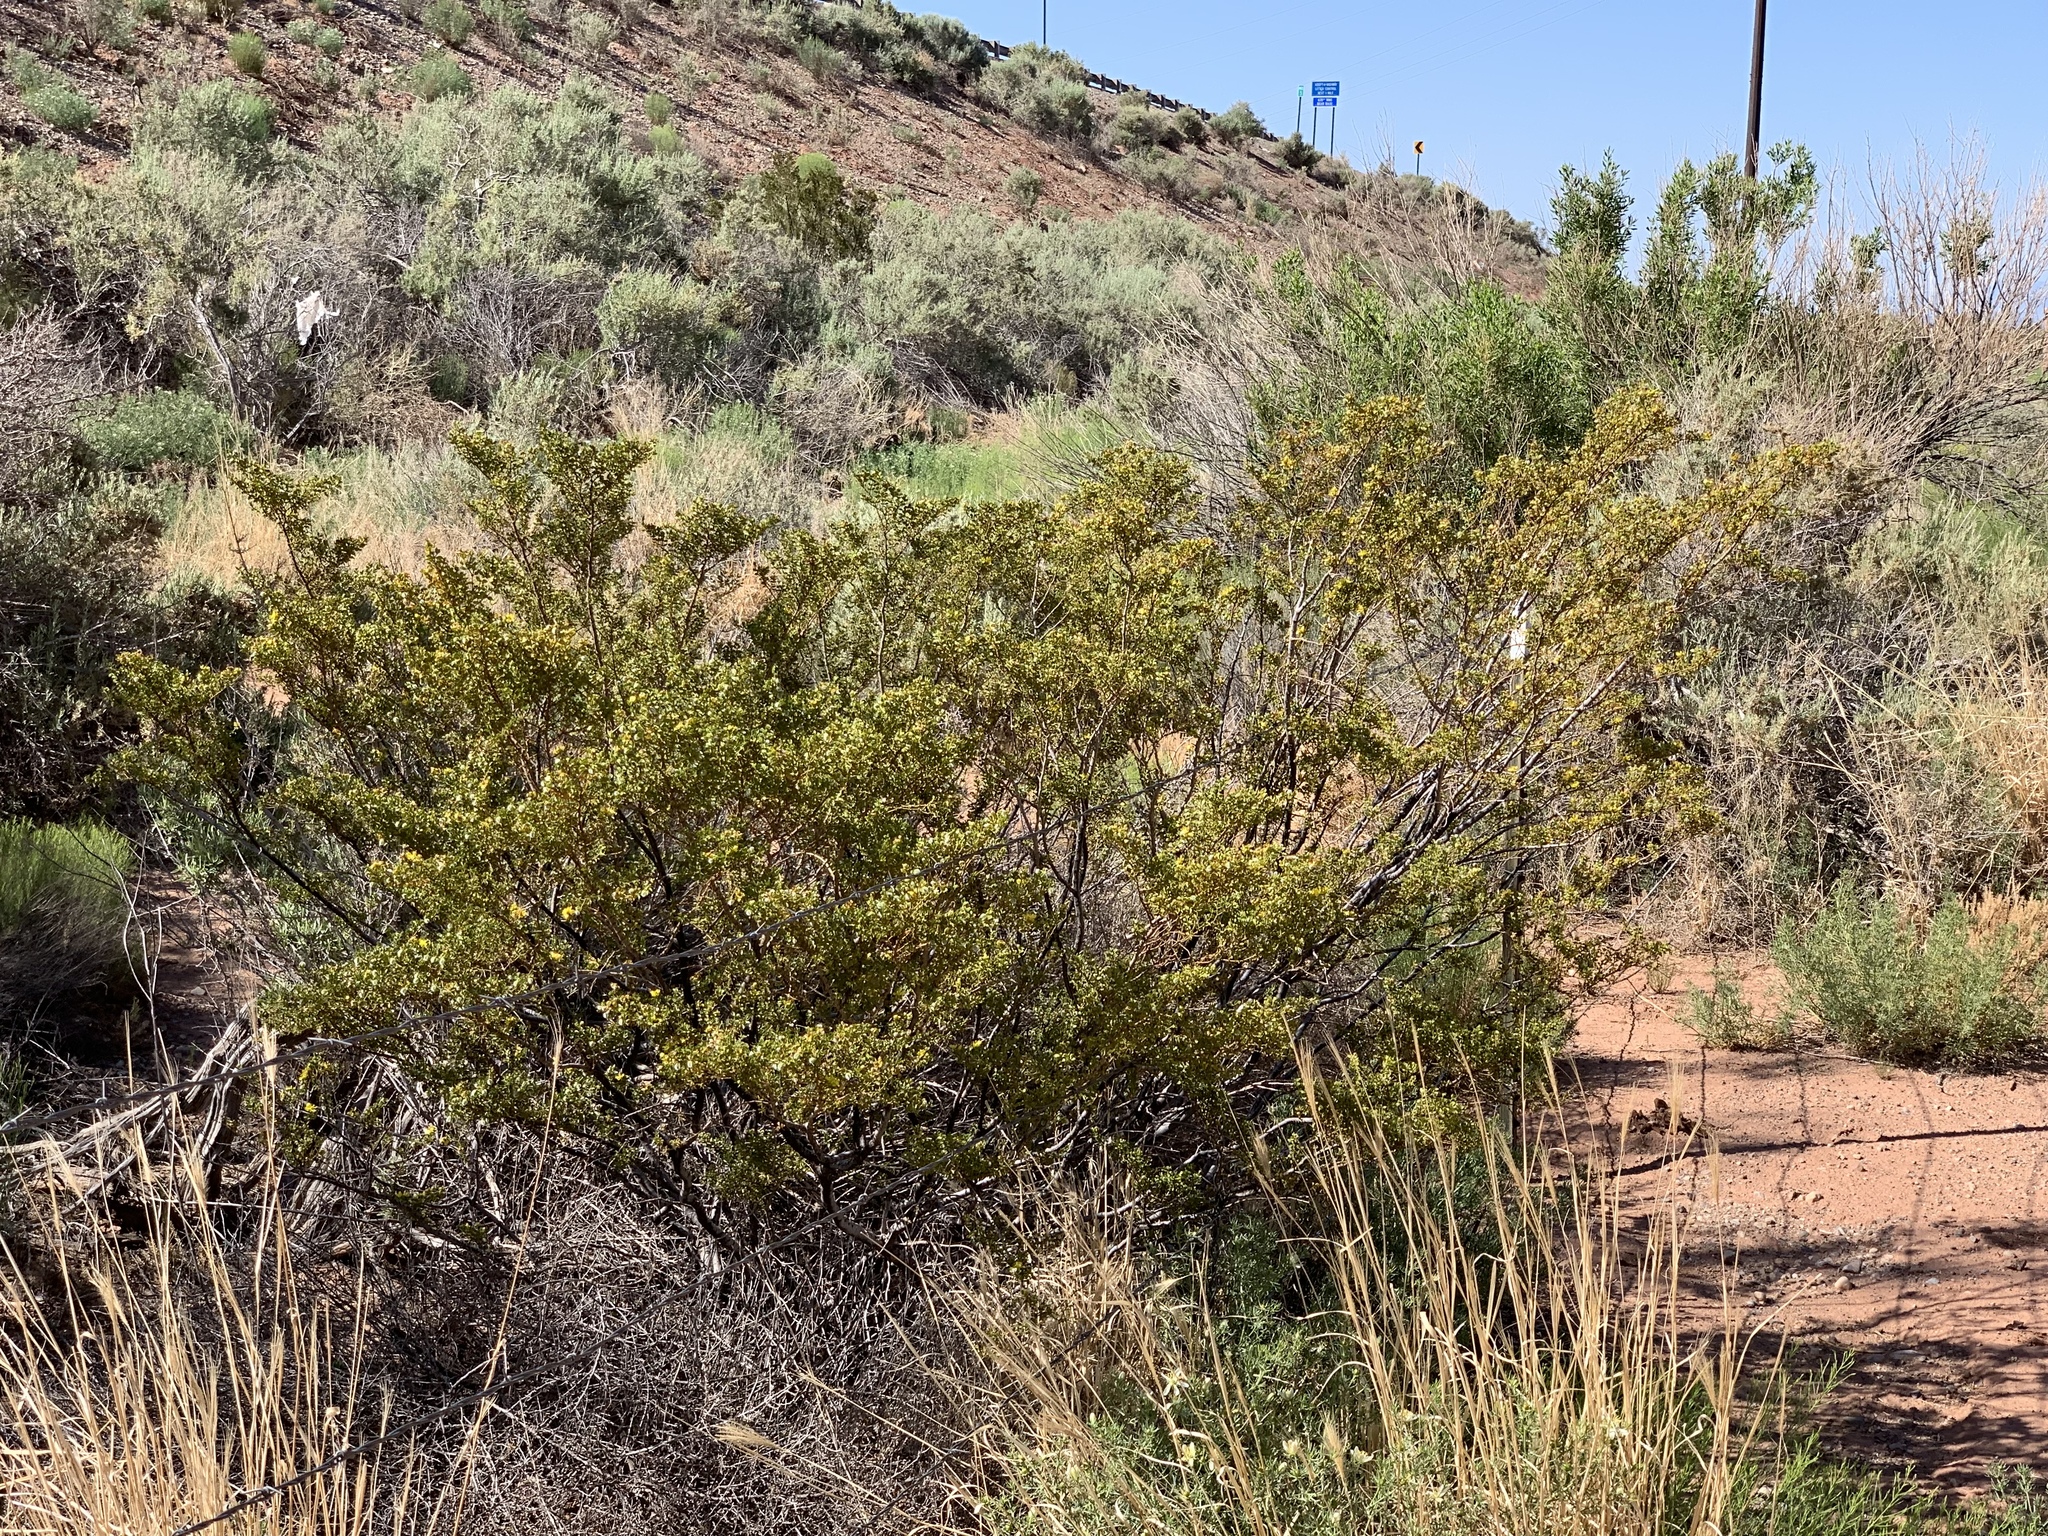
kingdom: Plantae
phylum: Tracheophyta
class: Magnoliopsida
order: Zygophyllales
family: Zygophyllaceae
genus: Larrea
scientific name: Larrea tridentata
